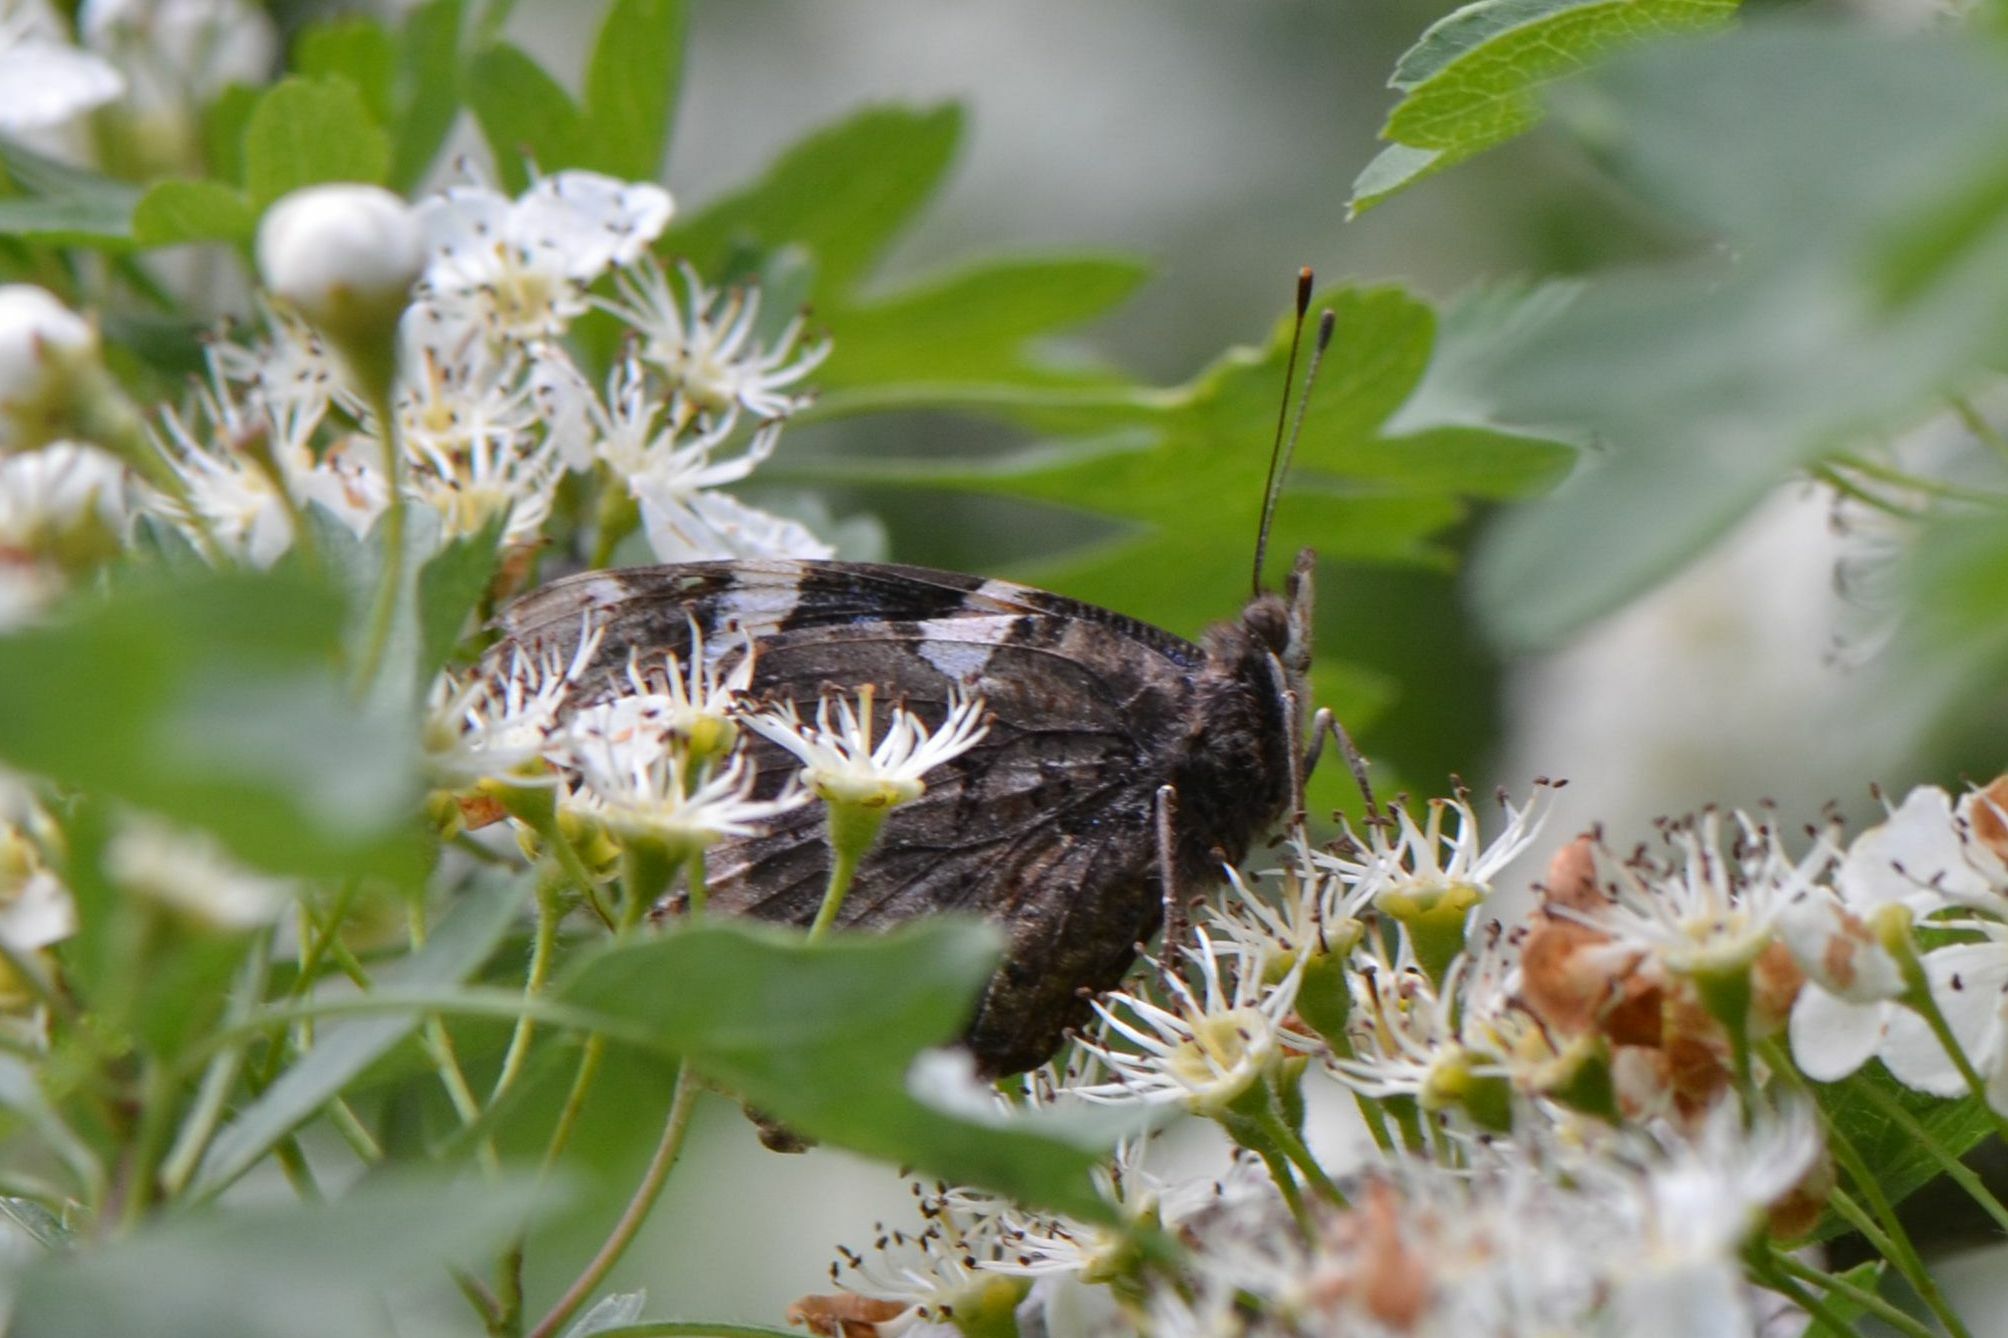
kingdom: Animalia
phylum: Arthropoda
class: Insecta
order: Lepidoptera
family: Nymphalidae
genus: Vanessa
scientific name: Vanessa atalanta
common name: Red admiral
